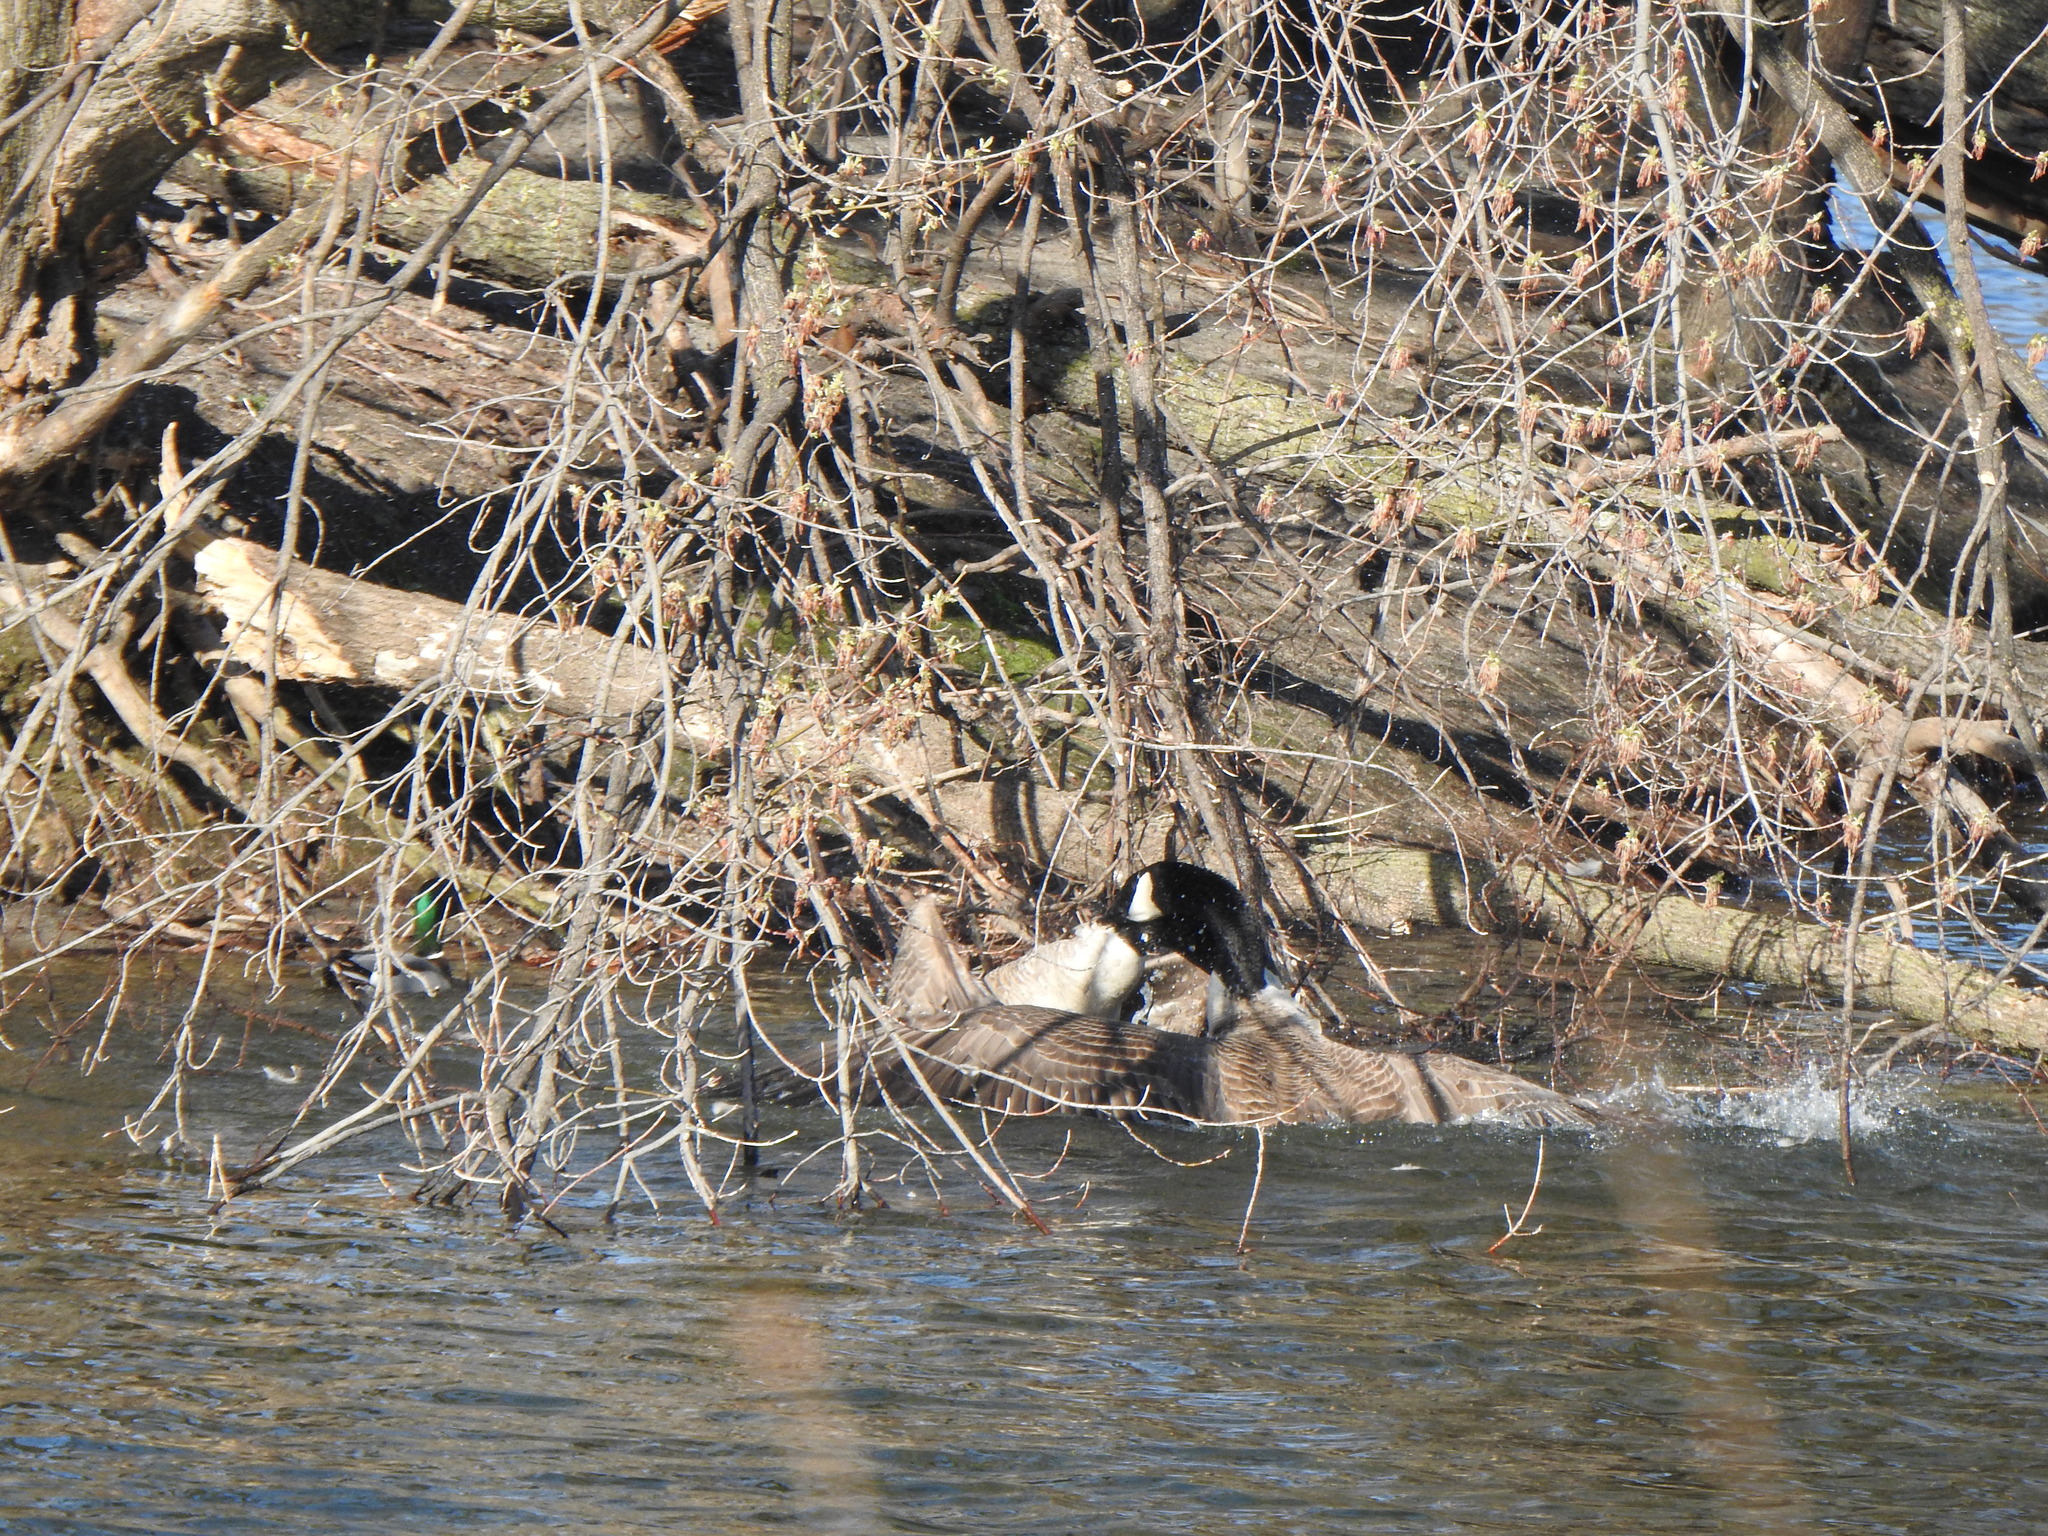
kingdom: Animalia
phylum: Chordata
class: Aves
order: Anseriformes
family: Anatidae
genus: Branta
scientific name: Branta canadensis
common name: Canada goose
